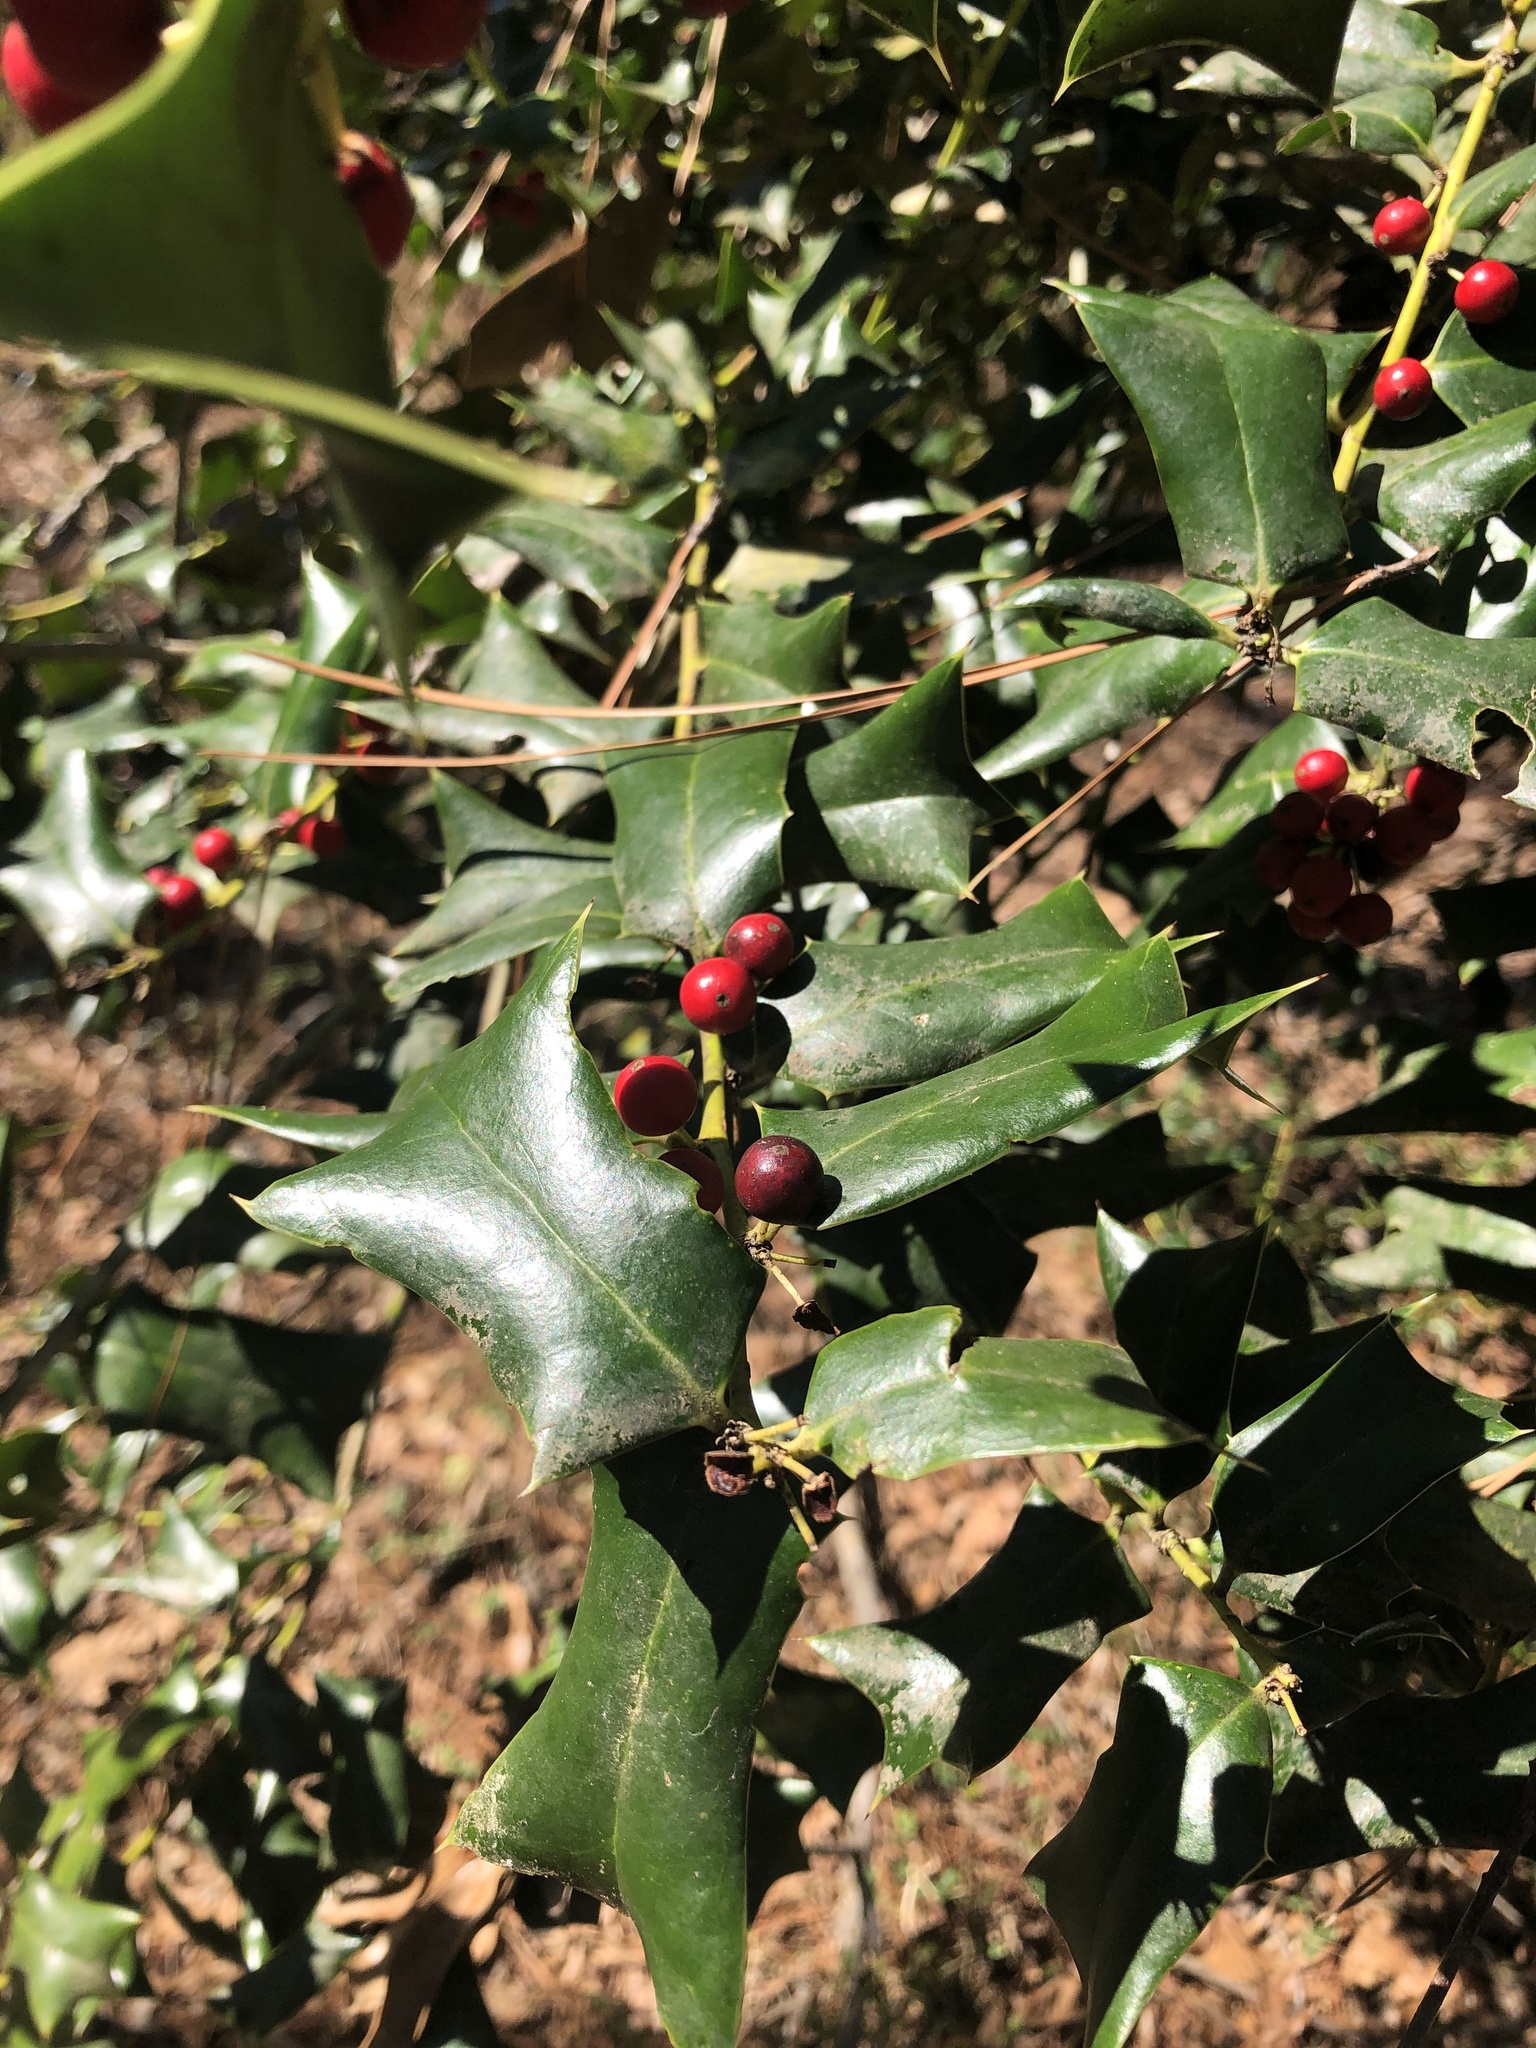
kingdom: Plantae
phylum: Tracheophyta
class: Magnoliopsida
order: Aquifoliales
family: Aquifoliaceae
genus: Ilex
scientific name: Ilex cornuta
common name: Chinese holly
